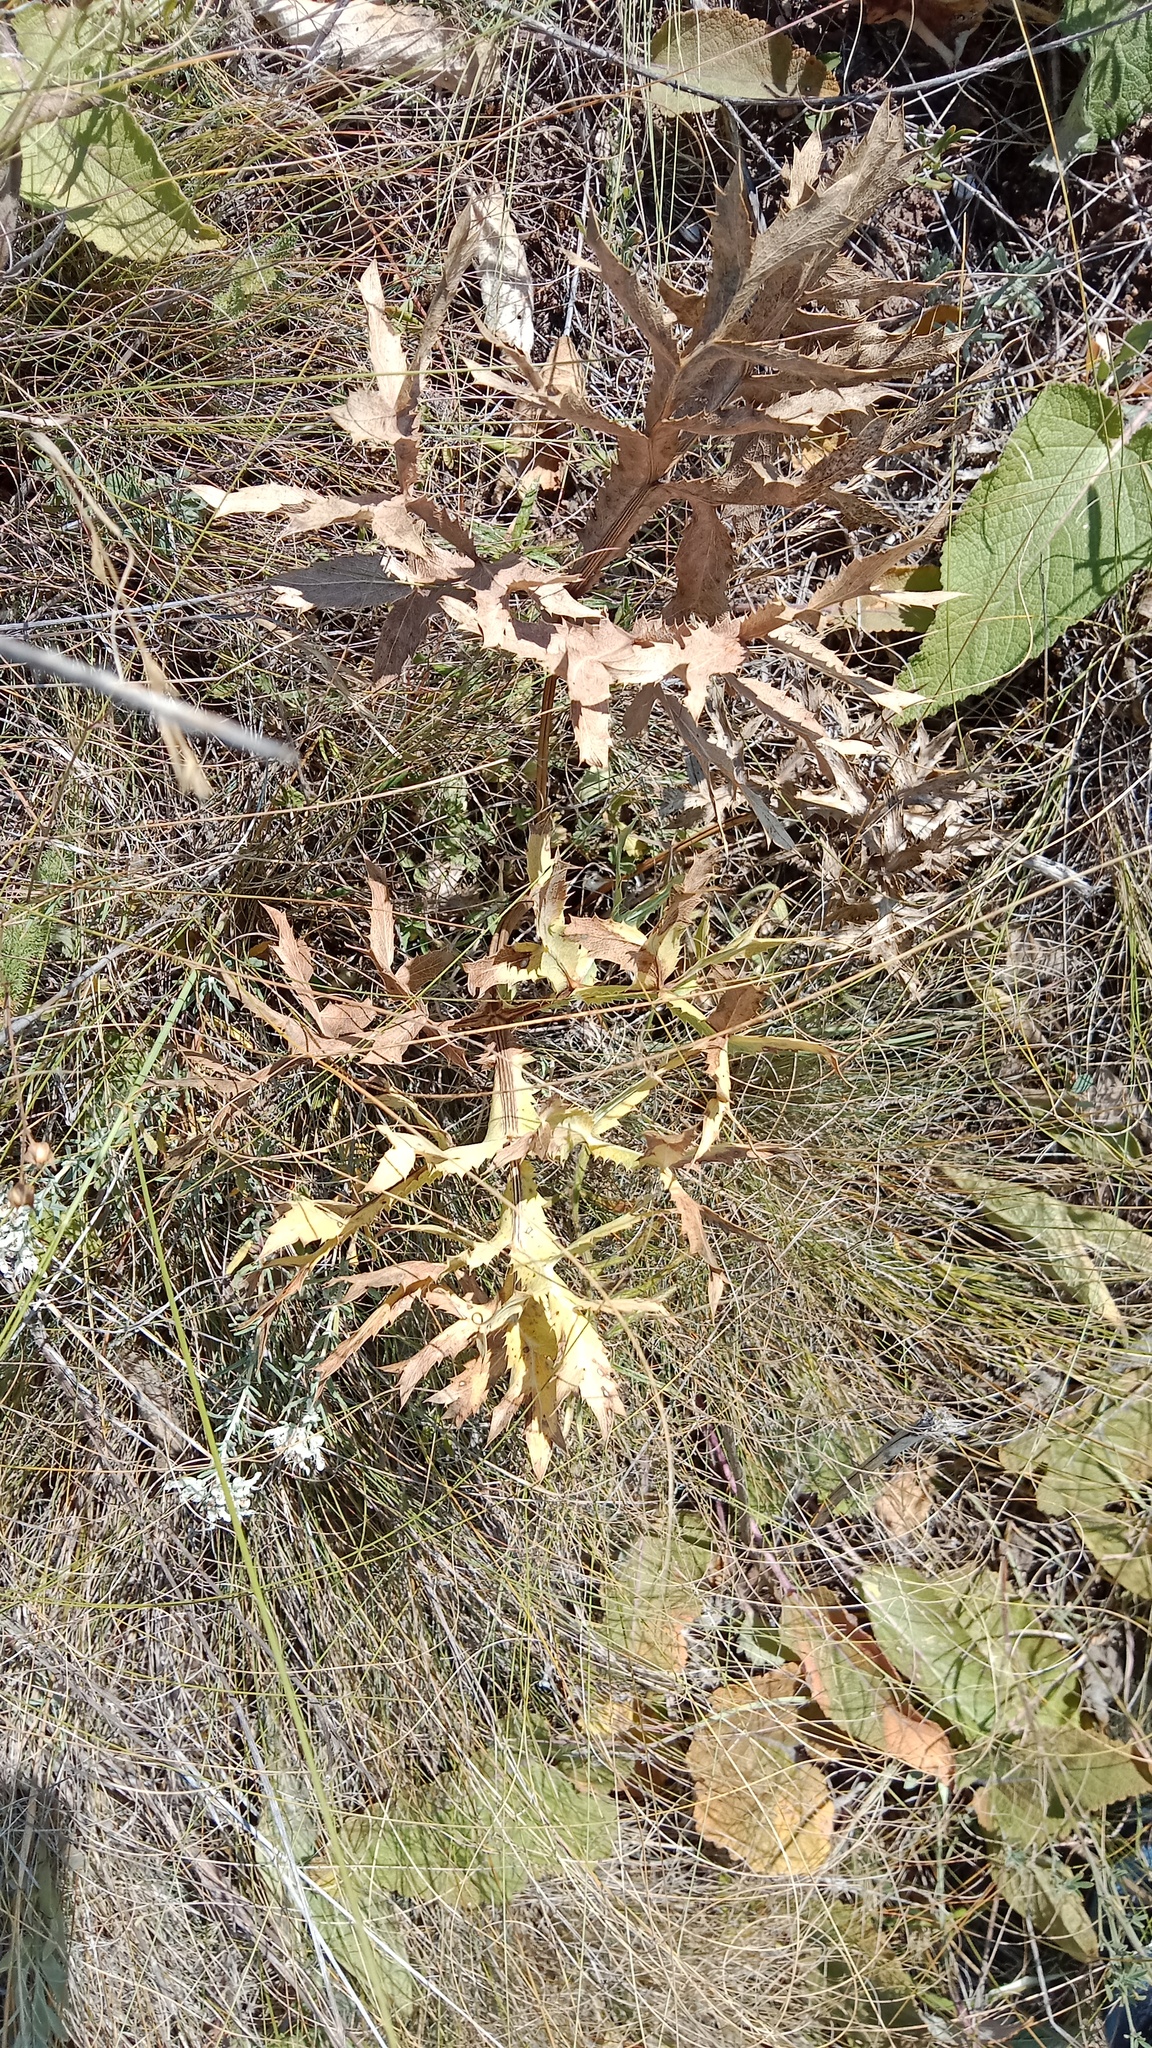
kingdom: Plantae
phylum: Tracheophyta
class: Magnoliopsida
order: Apiales
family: Apiaceae
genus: Eryngium
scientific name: Eryngium campestre
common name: Field eryngo
